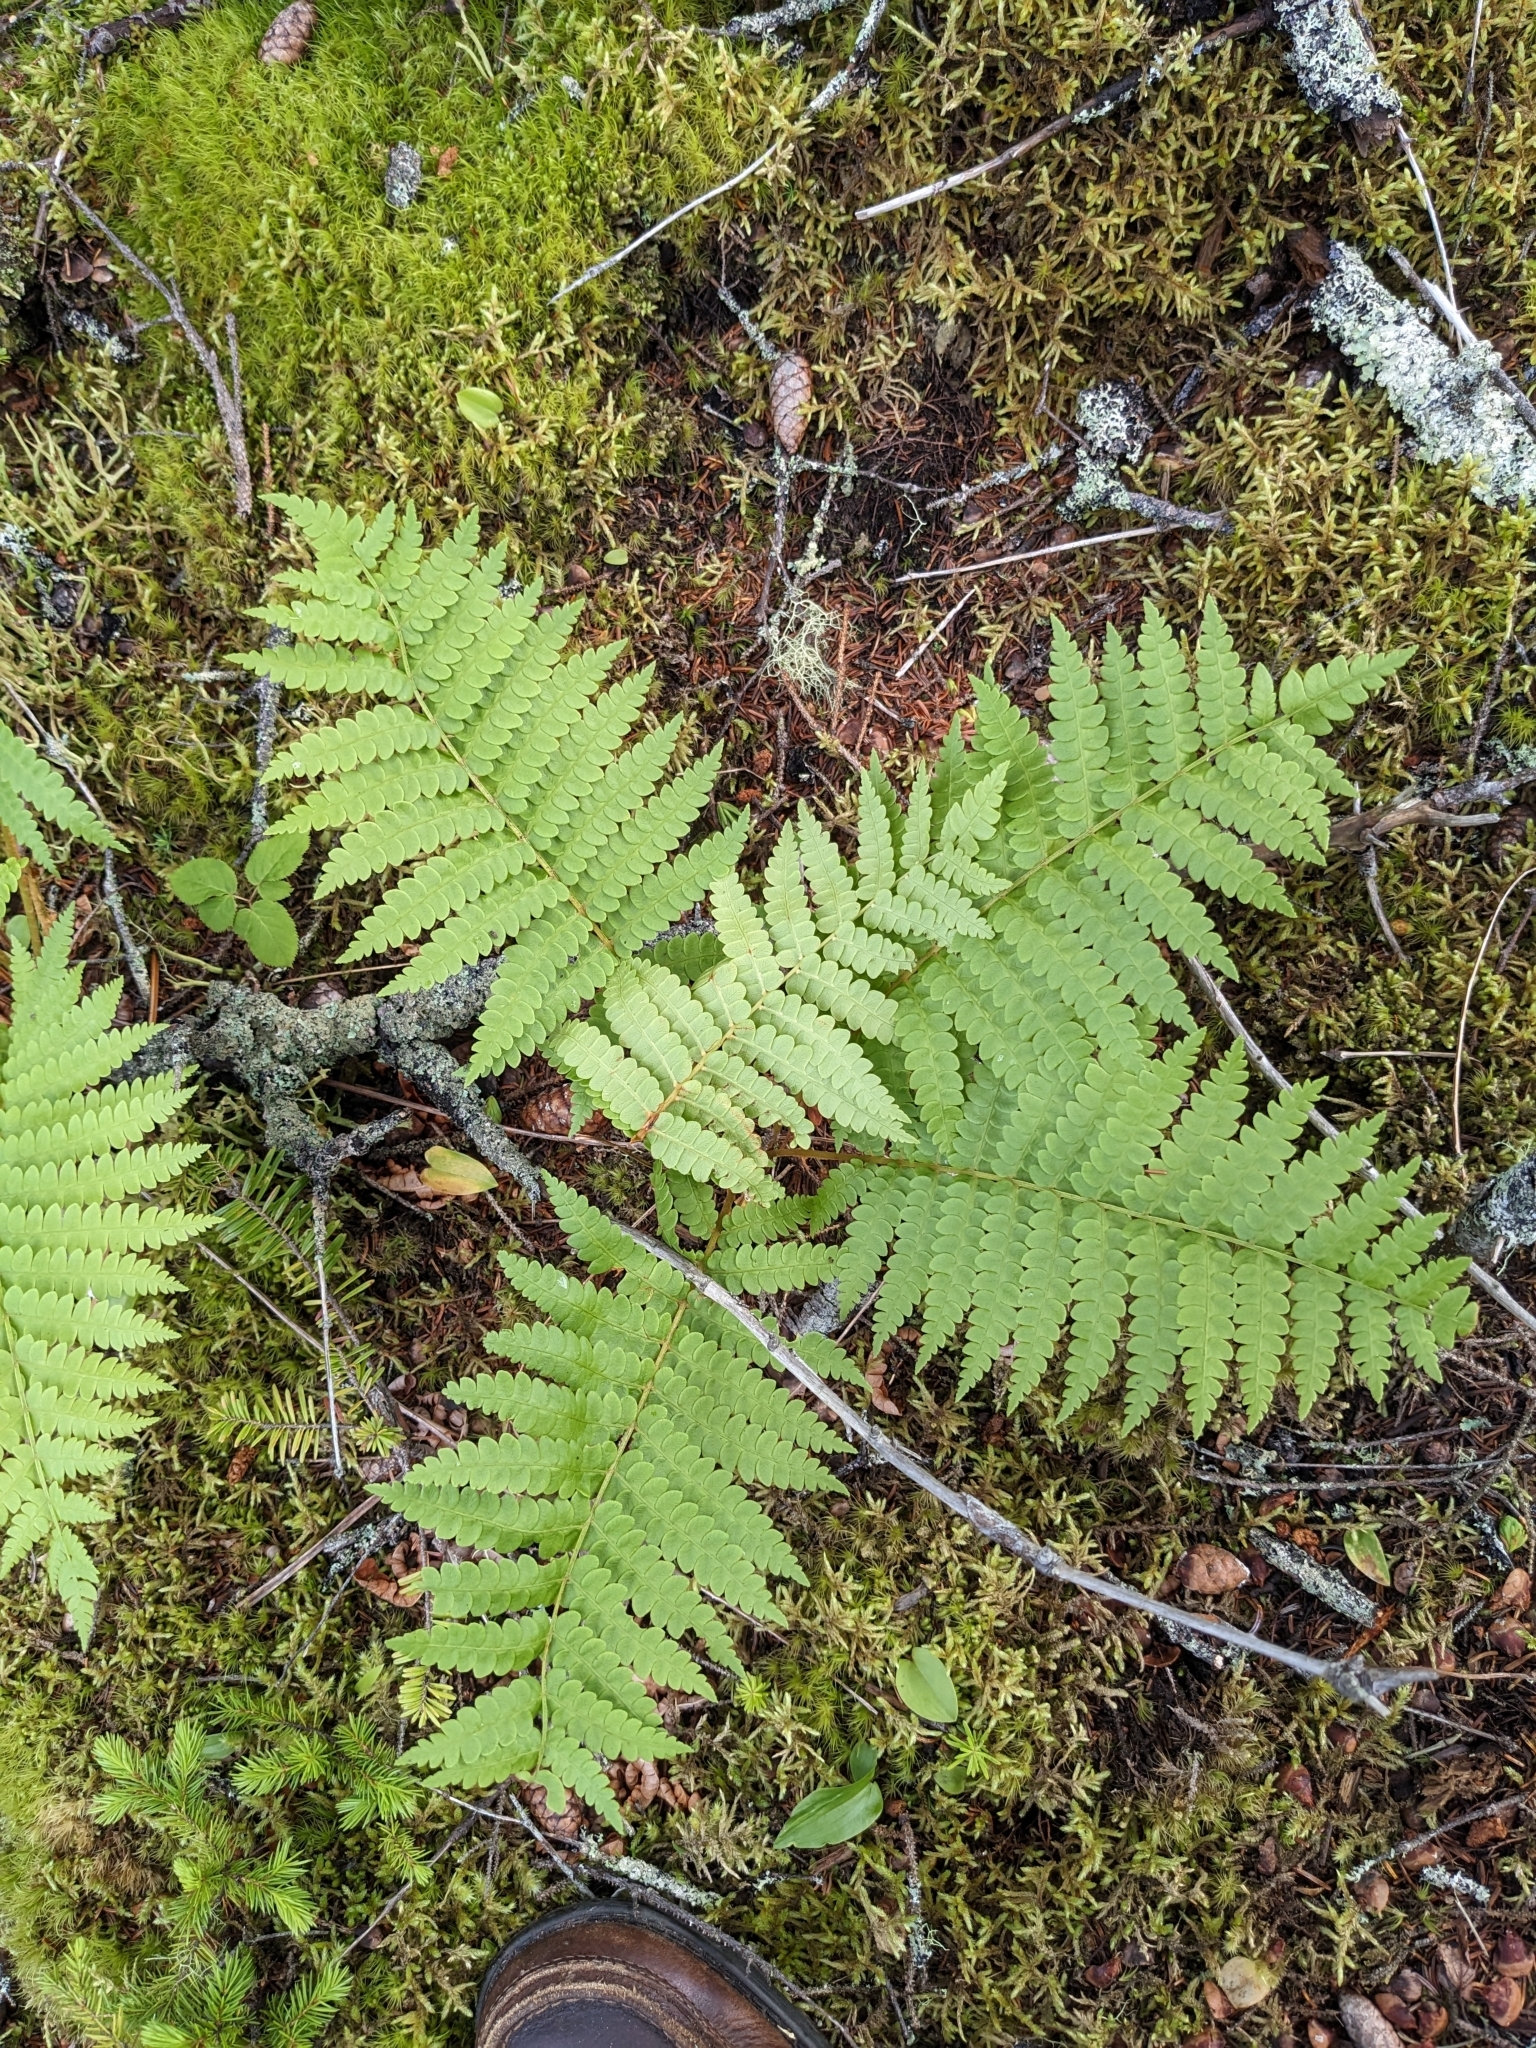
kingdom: Plantae
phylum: Tracheophyta
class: Polypodiopsida
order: Osmundales
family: Osmundaceae
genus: Osmundastrum
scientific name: Osmundastrum cinnamomeum
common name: Cinnamon fern
